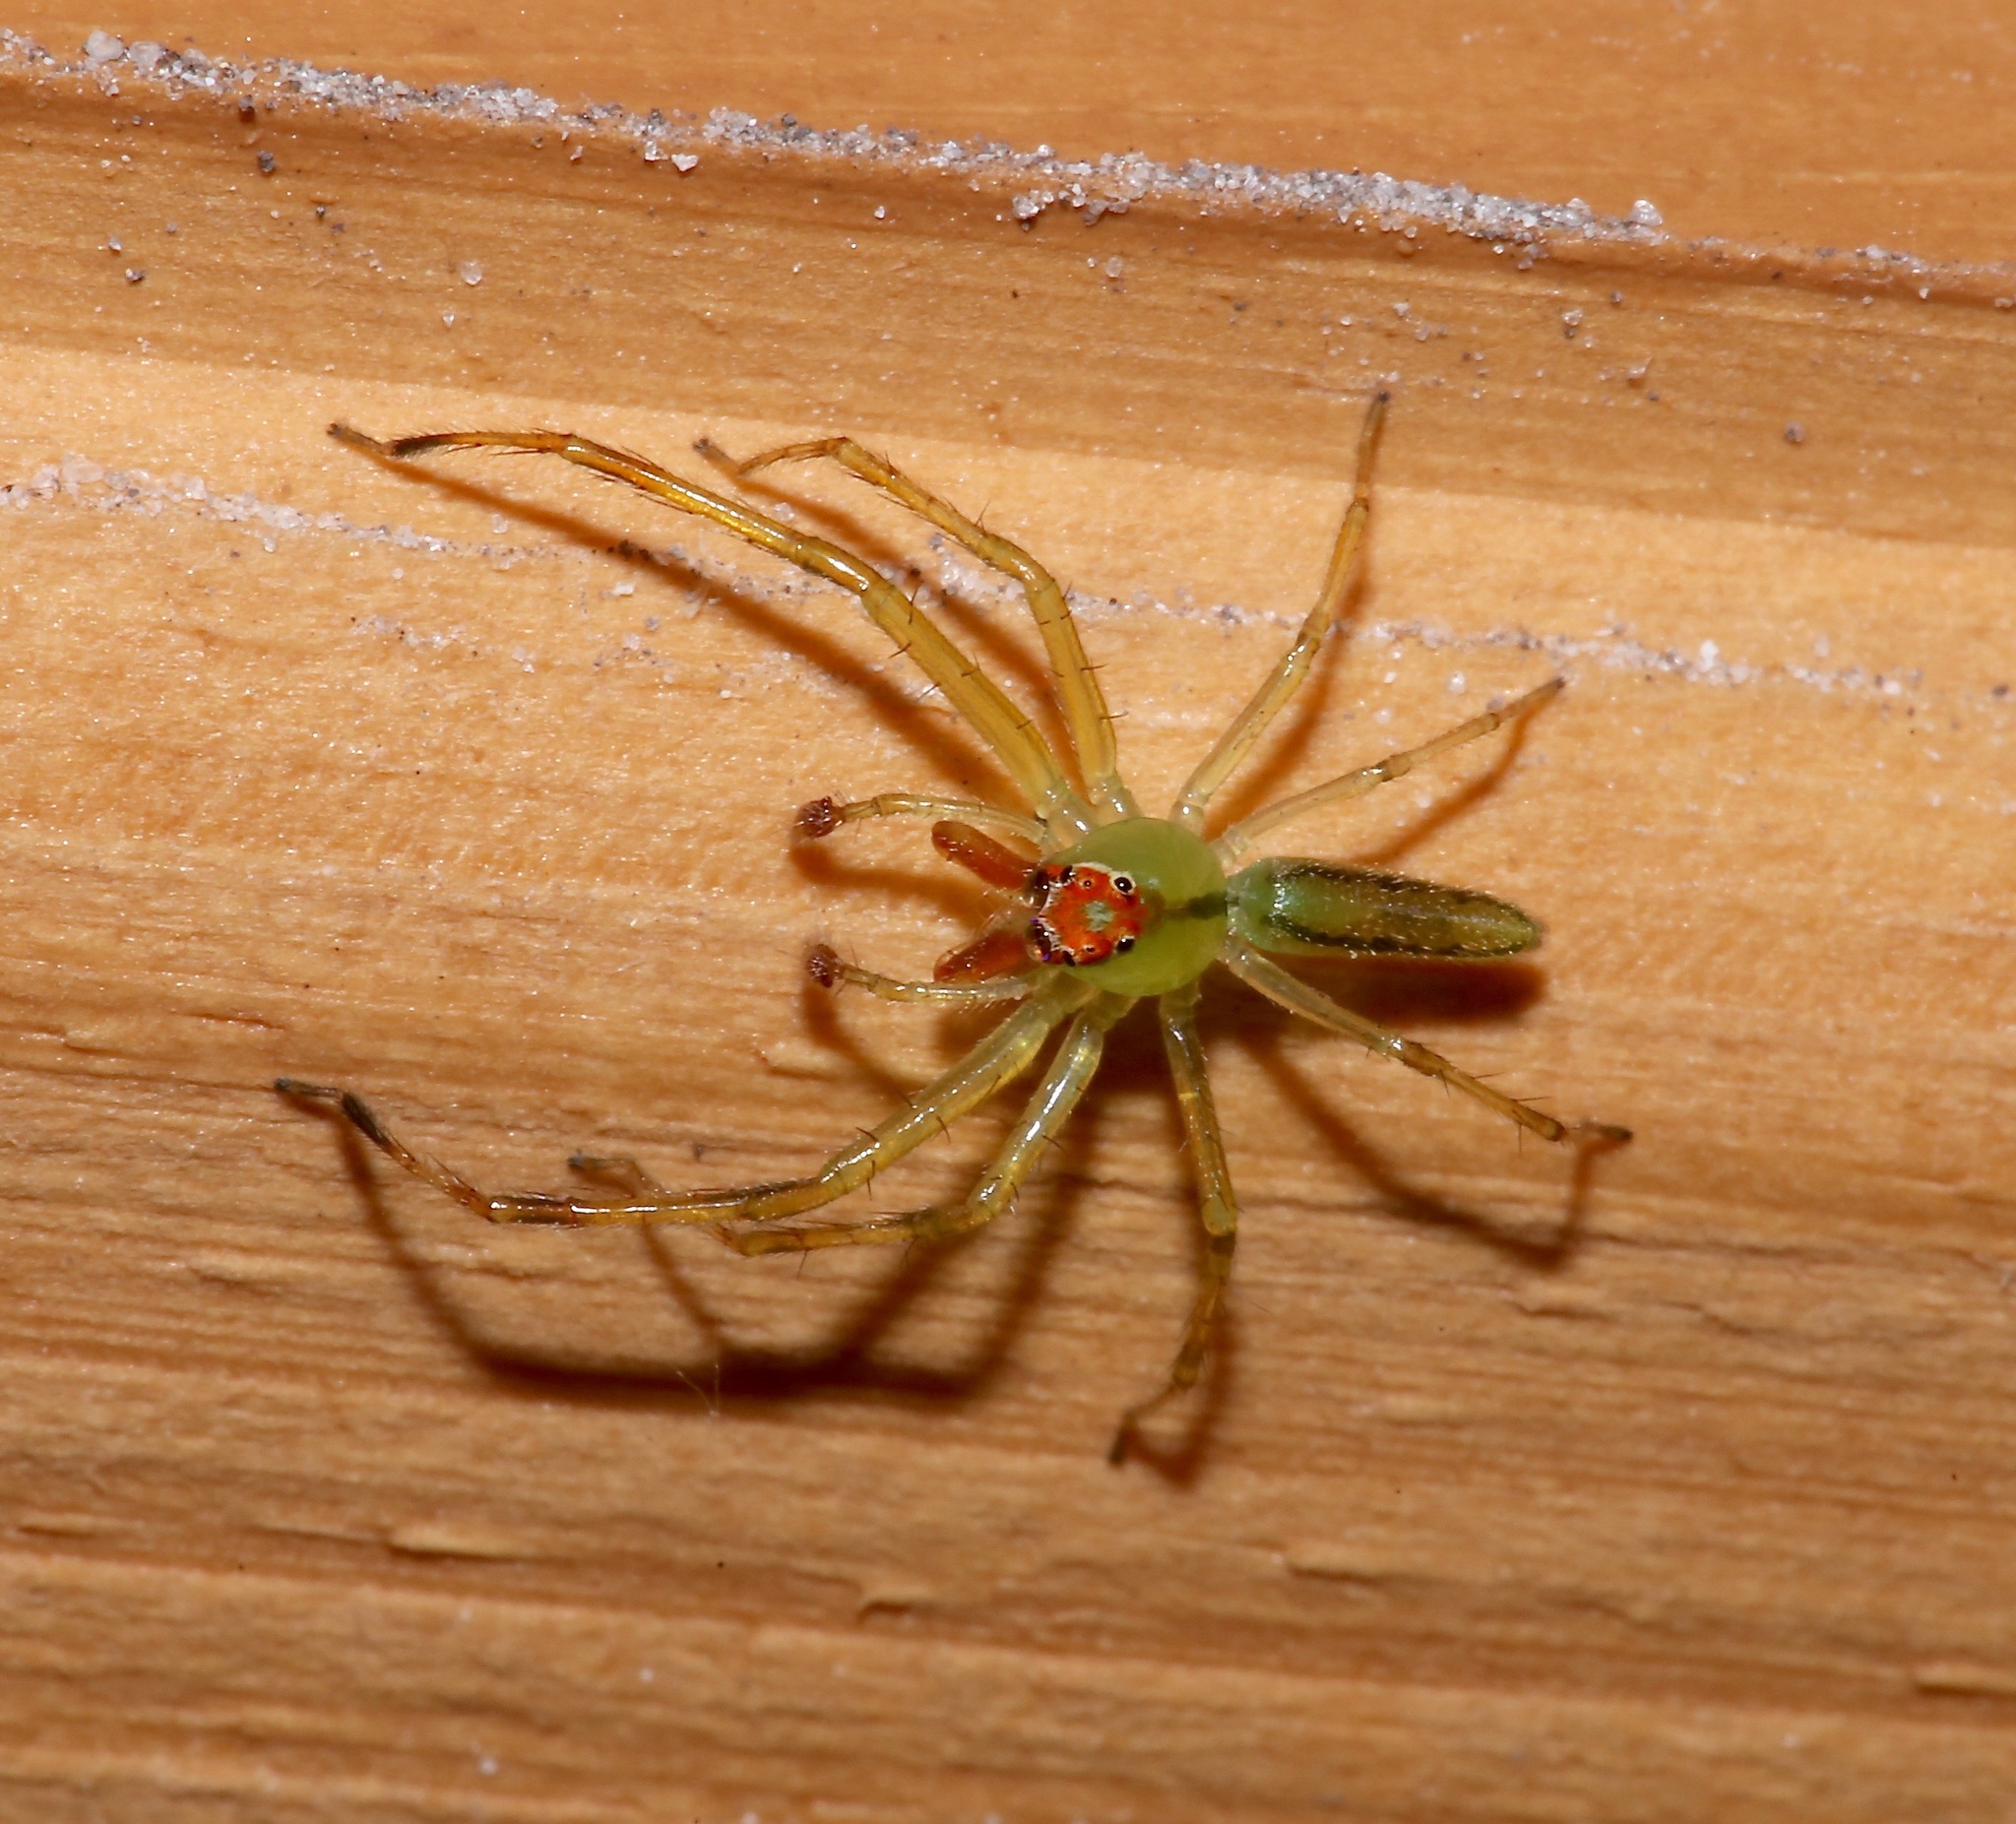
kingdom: Animalia
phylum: Arthropoda
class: Arachnida
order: Araneae
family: Salticidae
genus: Lyssomanes
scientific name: Lyssomanes viridis
